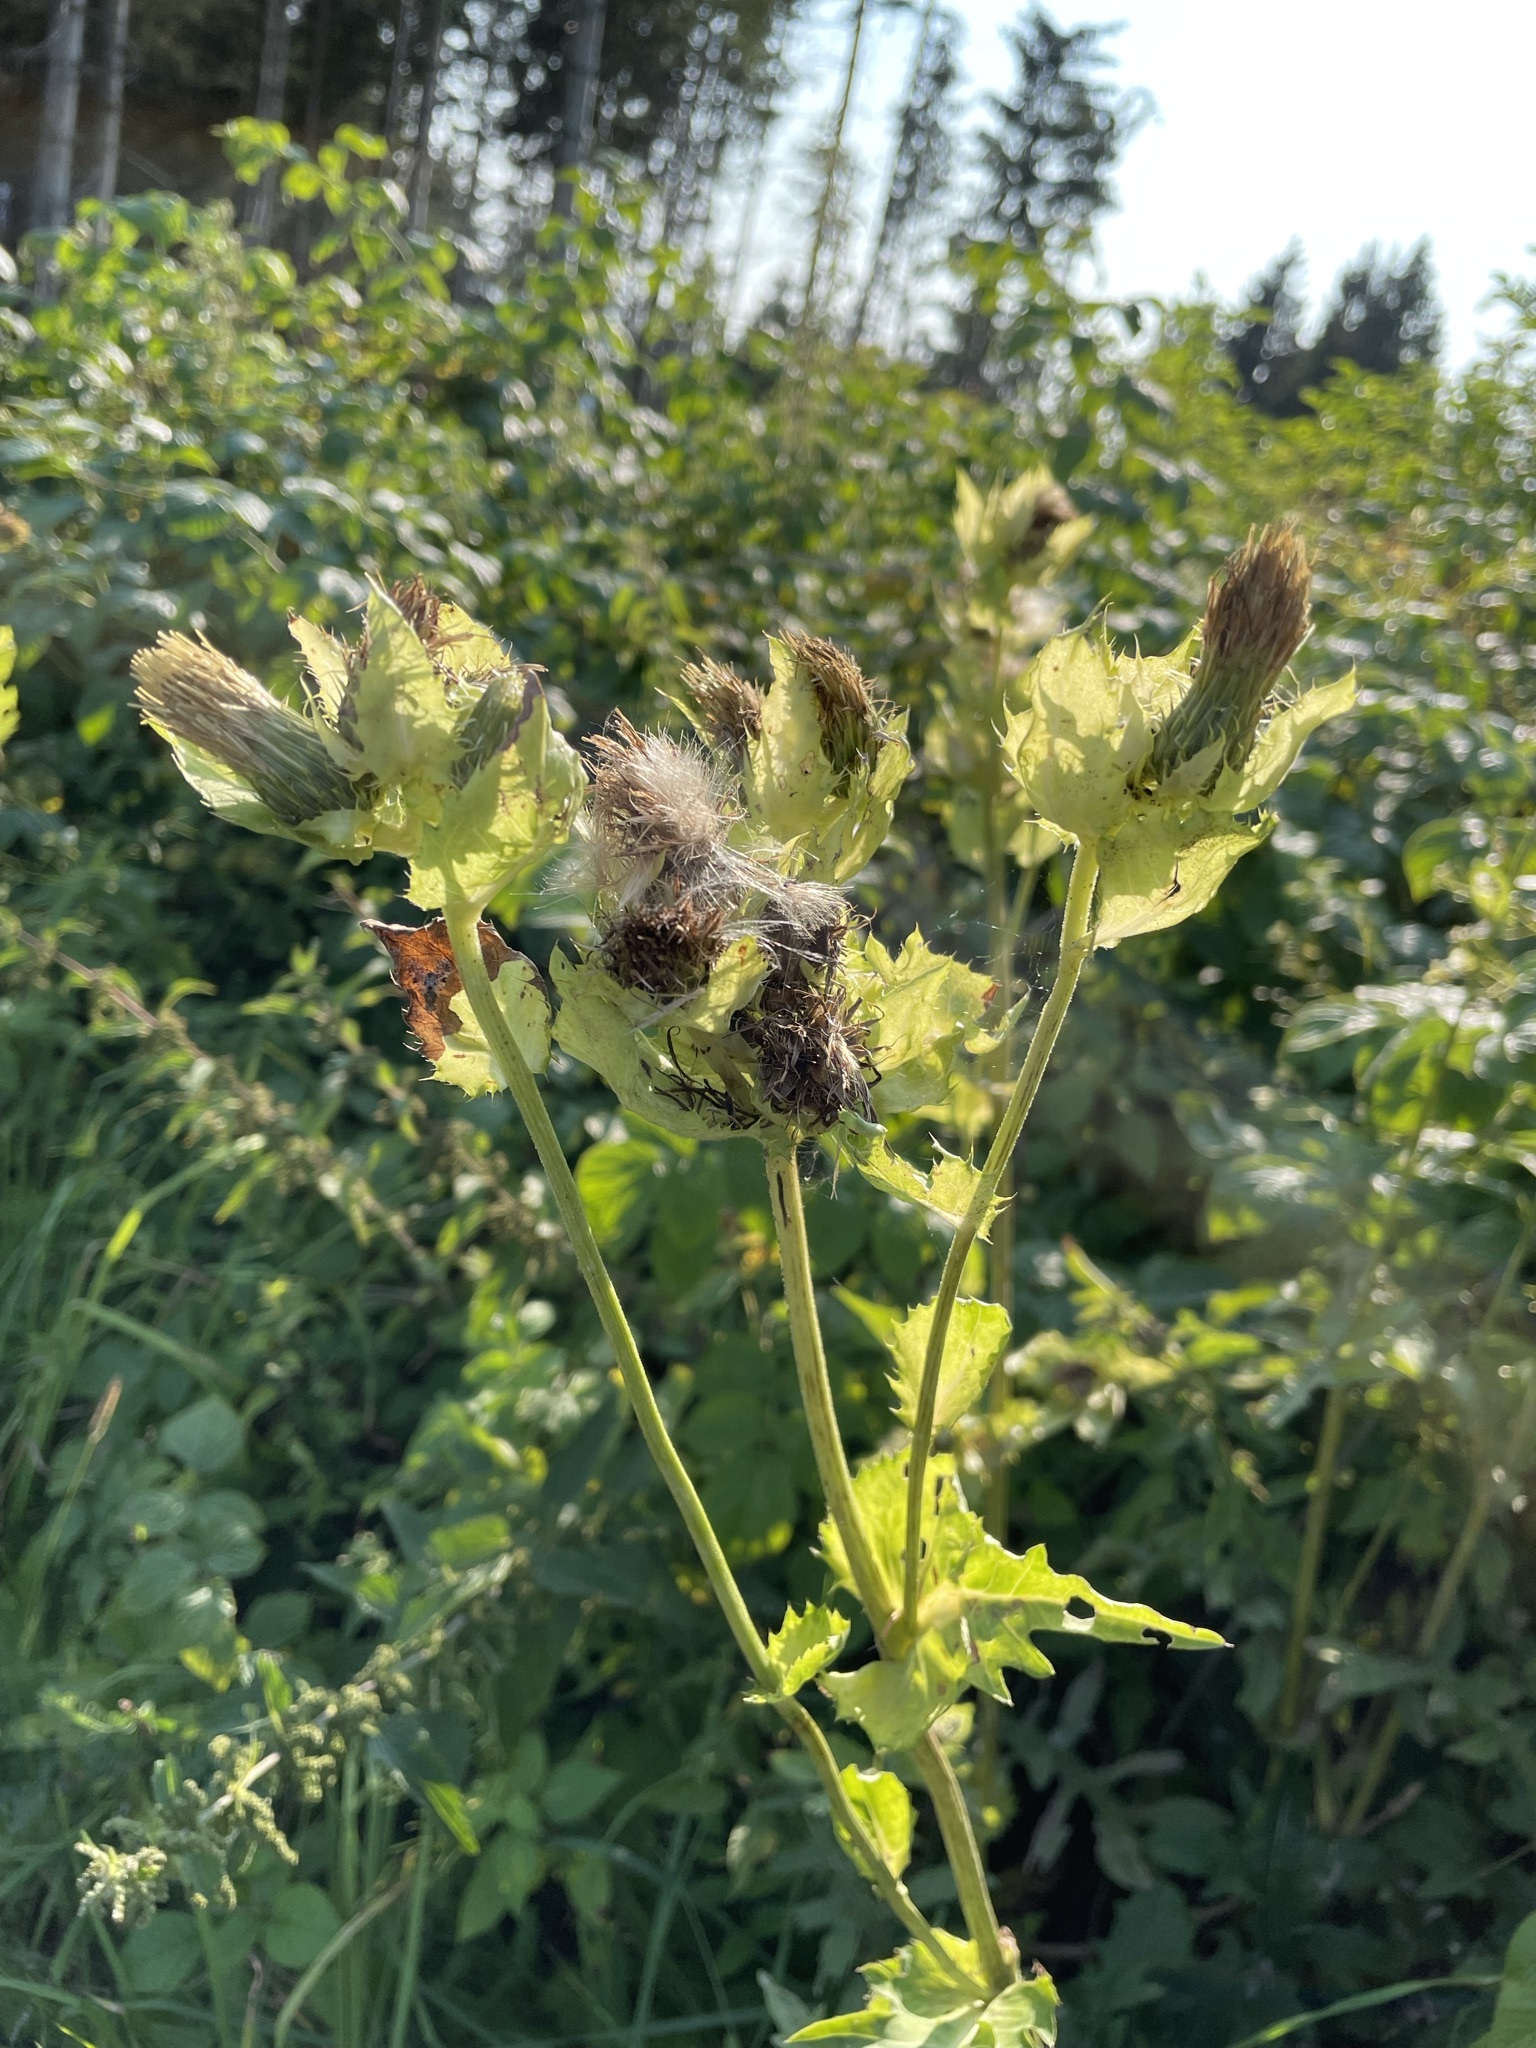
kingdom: Plantae
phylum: Tracheophyta
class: Magnoliopsida
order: Asterales
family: Asteraceae
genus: Cirsium
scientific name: Cirsium oleraceum
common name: Cabbage thistle
